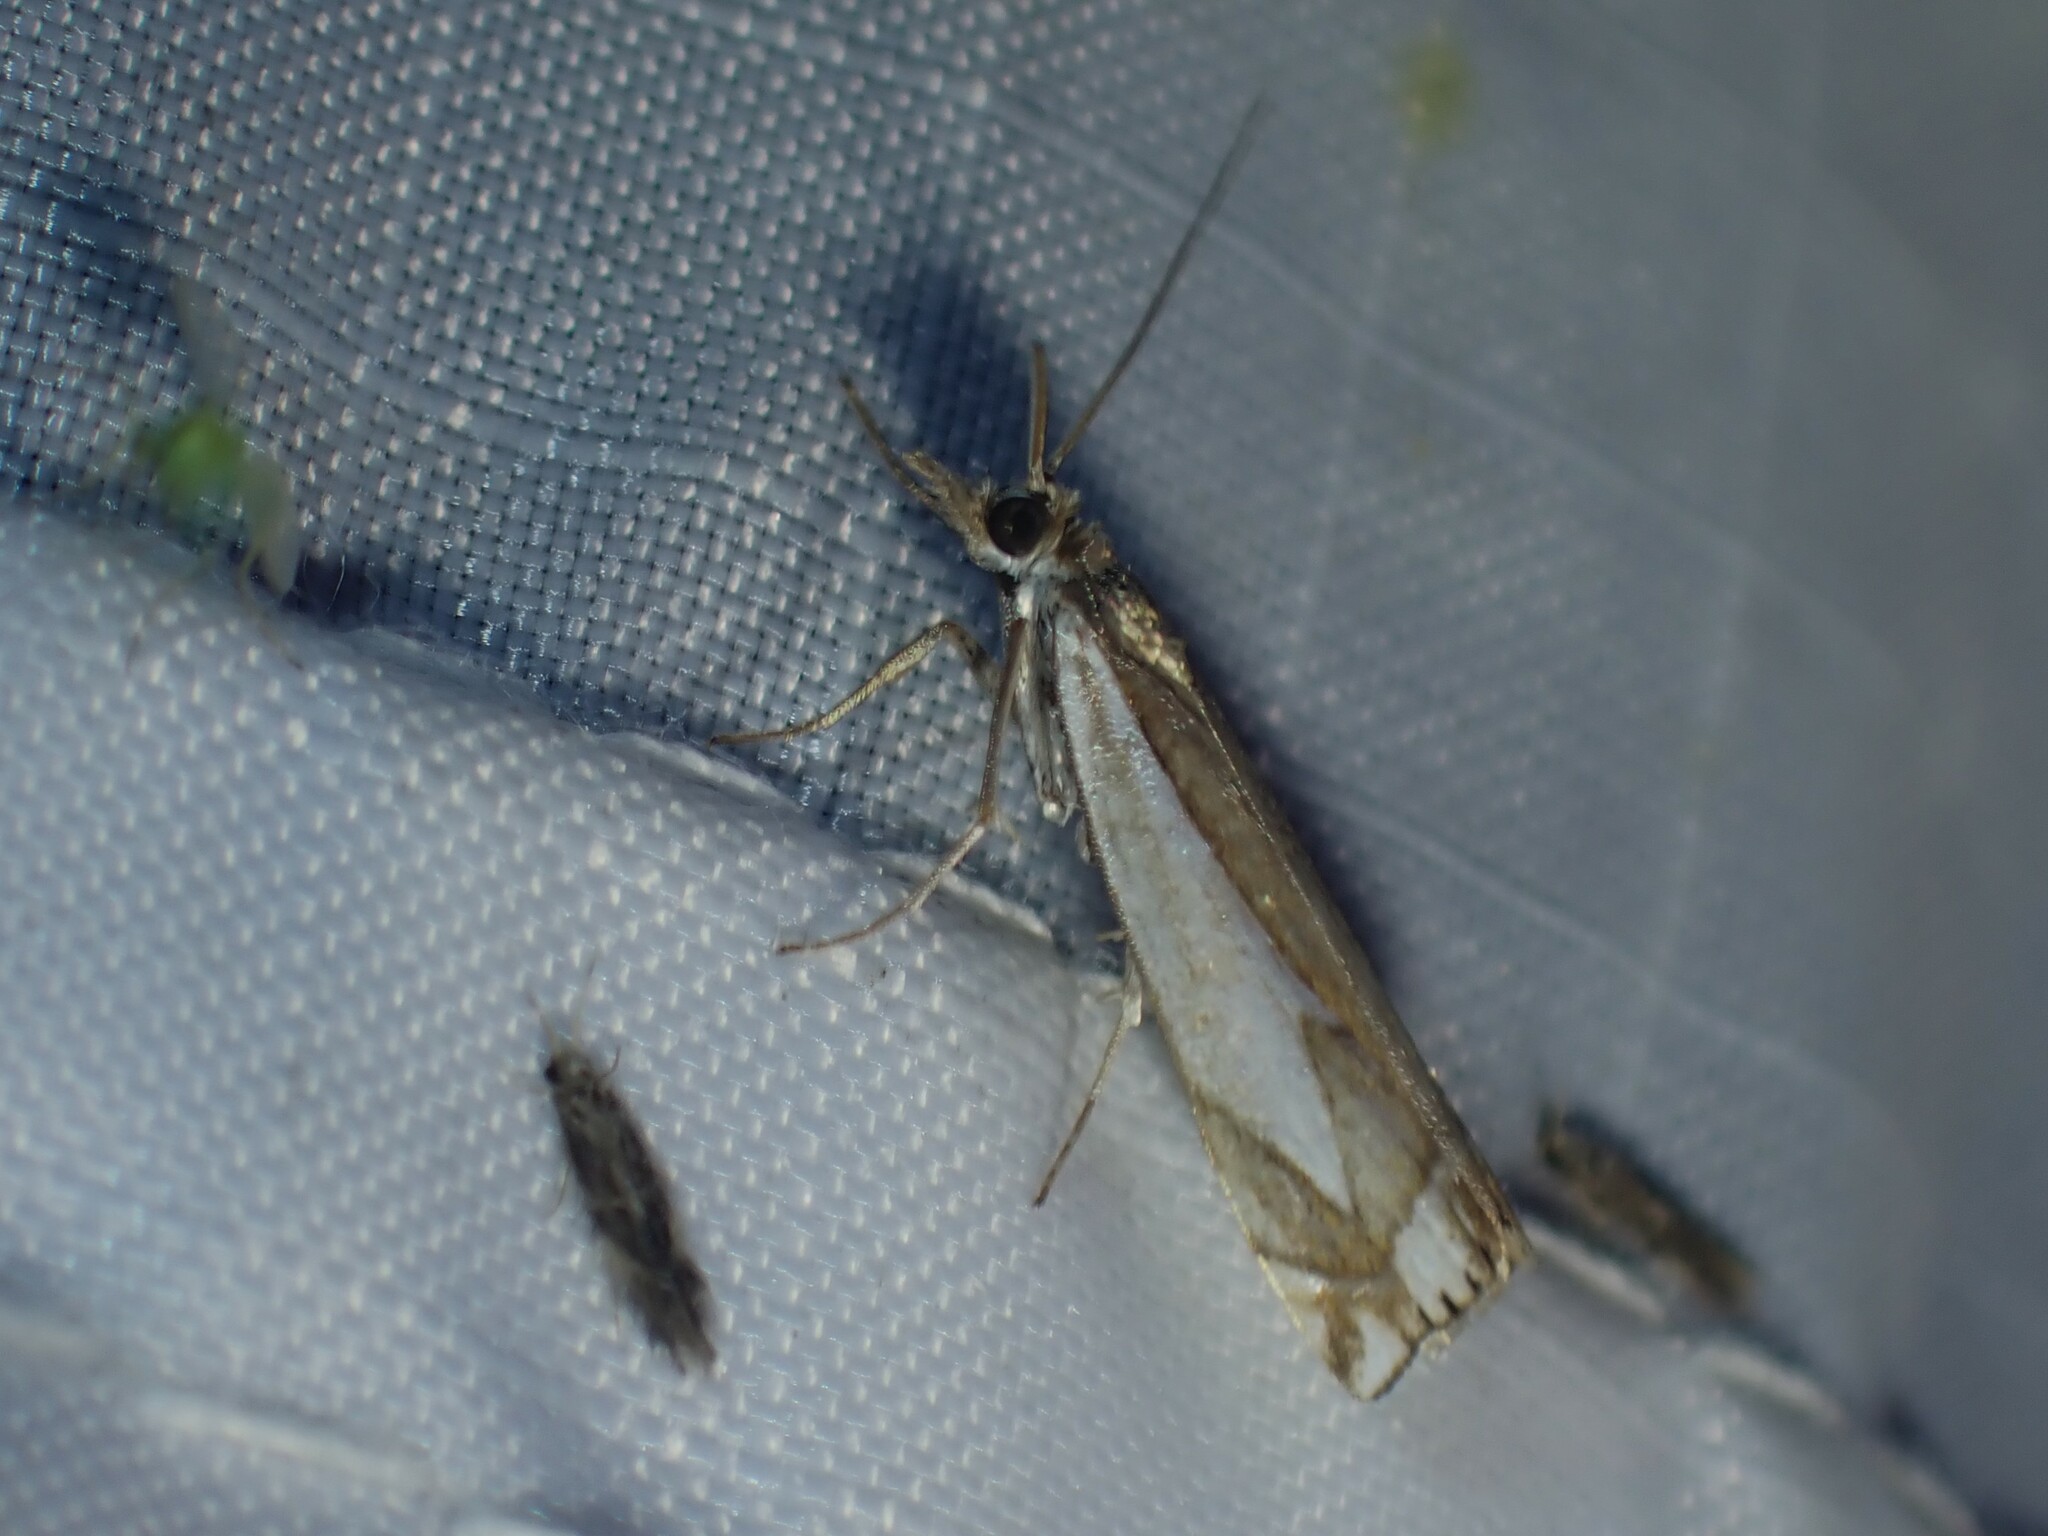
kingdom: Animalia
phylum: Arthropoda
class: Insecta
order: Lepidoptera
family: Crambidae
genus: Crambus
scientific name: Crambus bidens
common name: Forked grass-veneer
